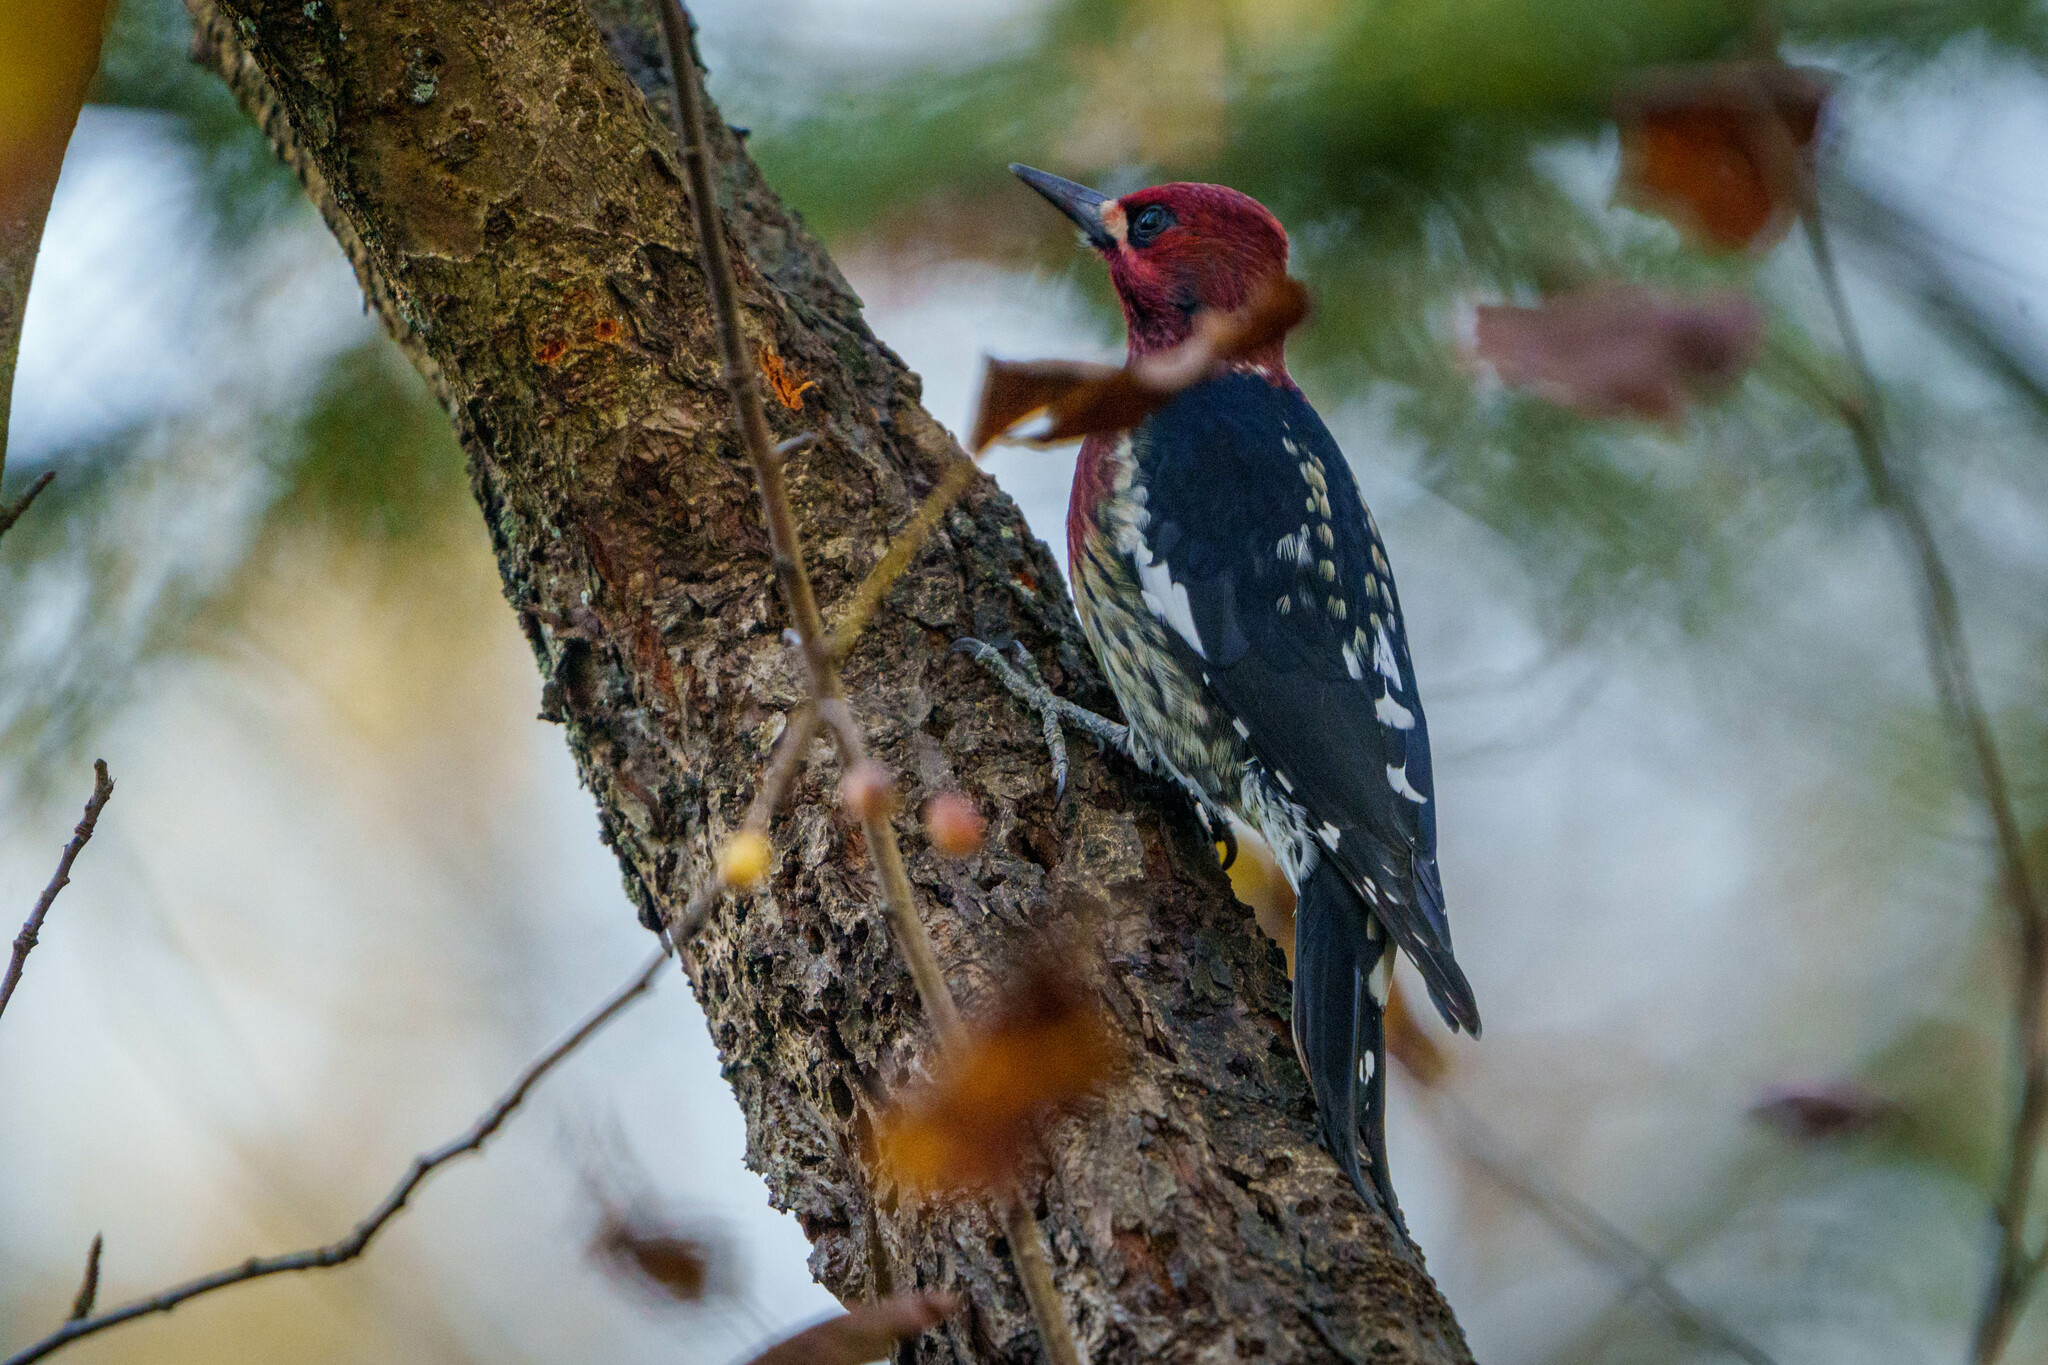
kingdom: Animalia
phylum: Chordata
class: Aves
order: Piciformes
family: Picidae
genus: Sphyrapicus
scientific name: Sphyrapicus ruber
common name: Red-breasted sapsucker
